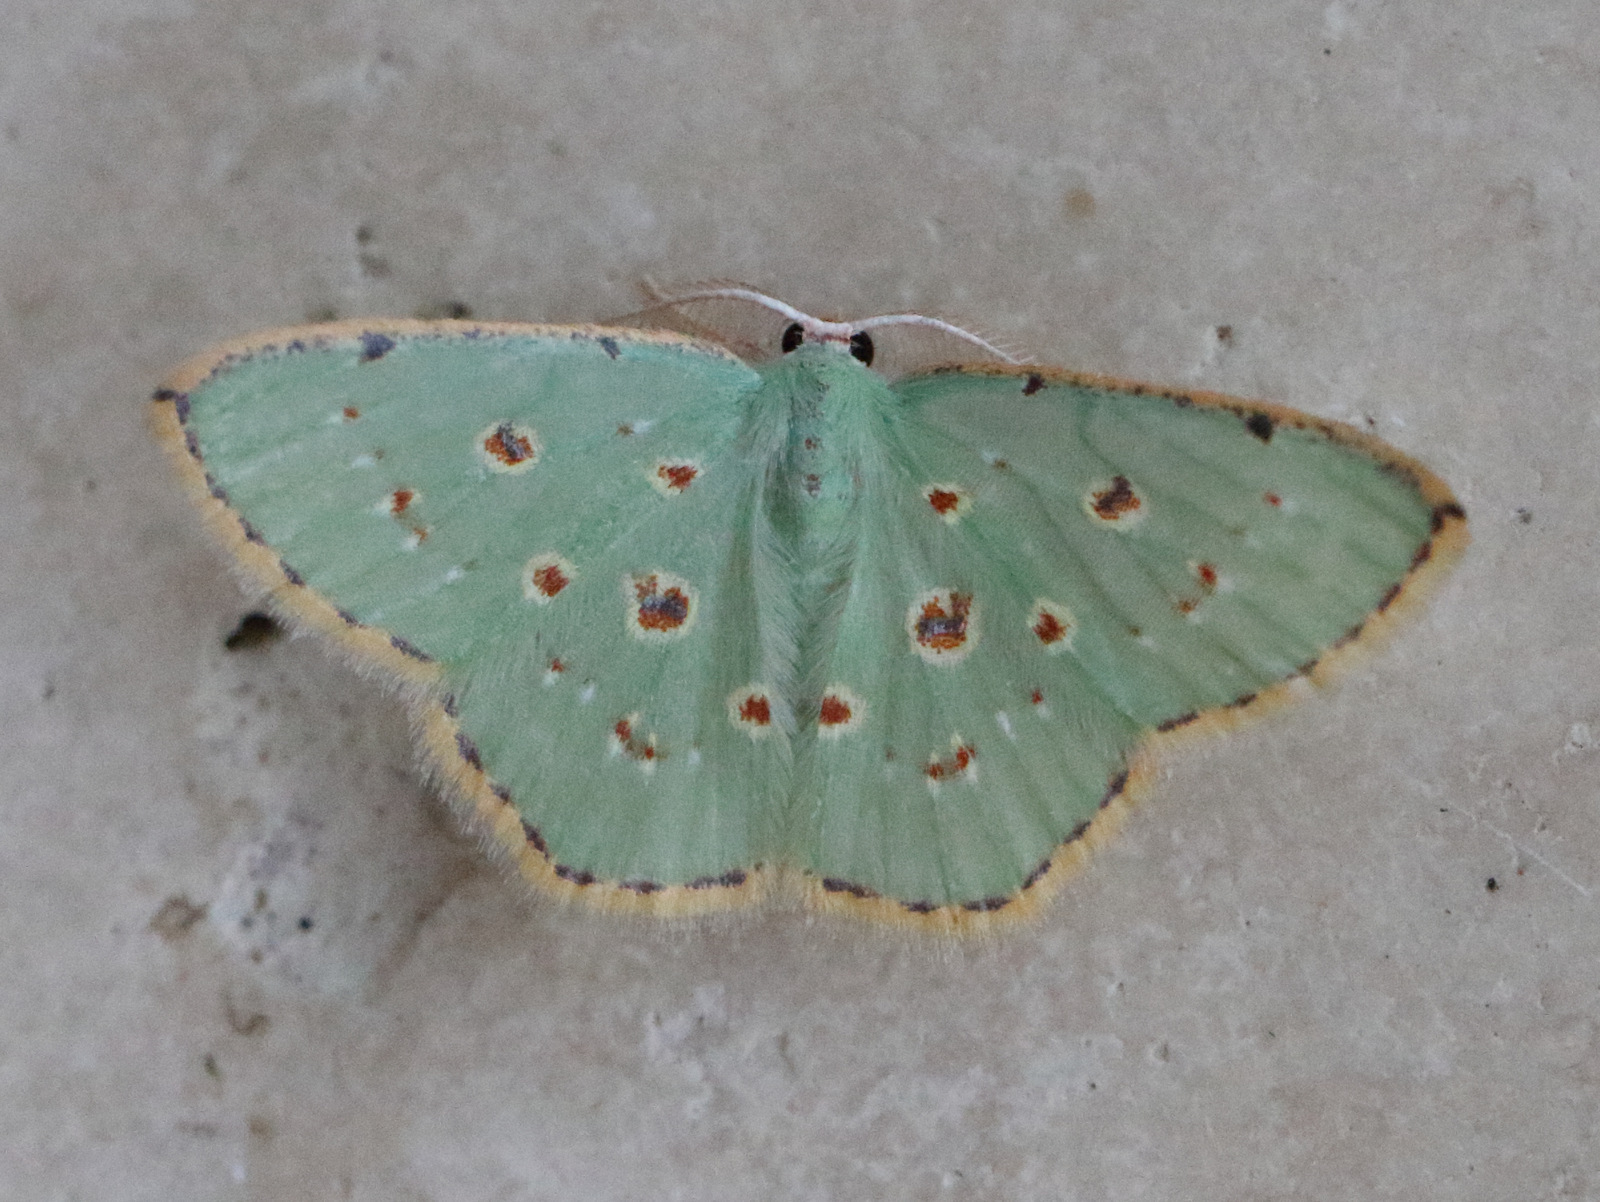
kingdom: Animalia
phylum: Arthropoda
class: Insecta
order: Lepidoptera
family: Geometridae
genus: Comostola
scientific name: Comostola laesaria
